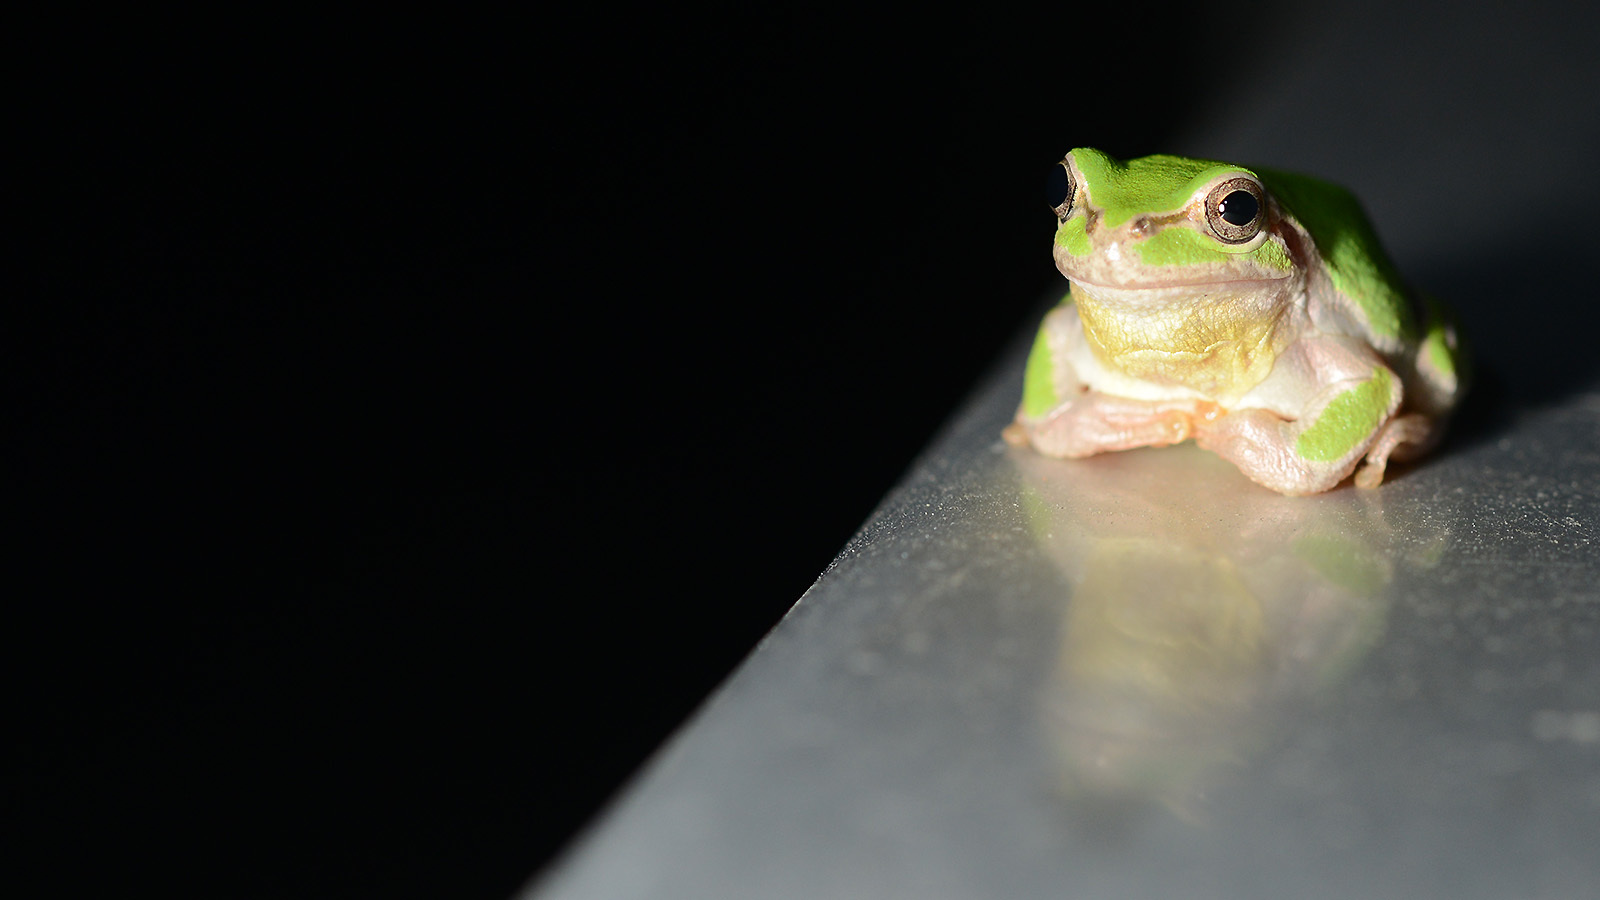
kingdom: Animalia
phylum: Chordata
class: Amphibia
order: Anura
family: Hylidae
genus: Dryophytes
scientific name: Dryophytes japonicus
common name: Japanese treefrog
